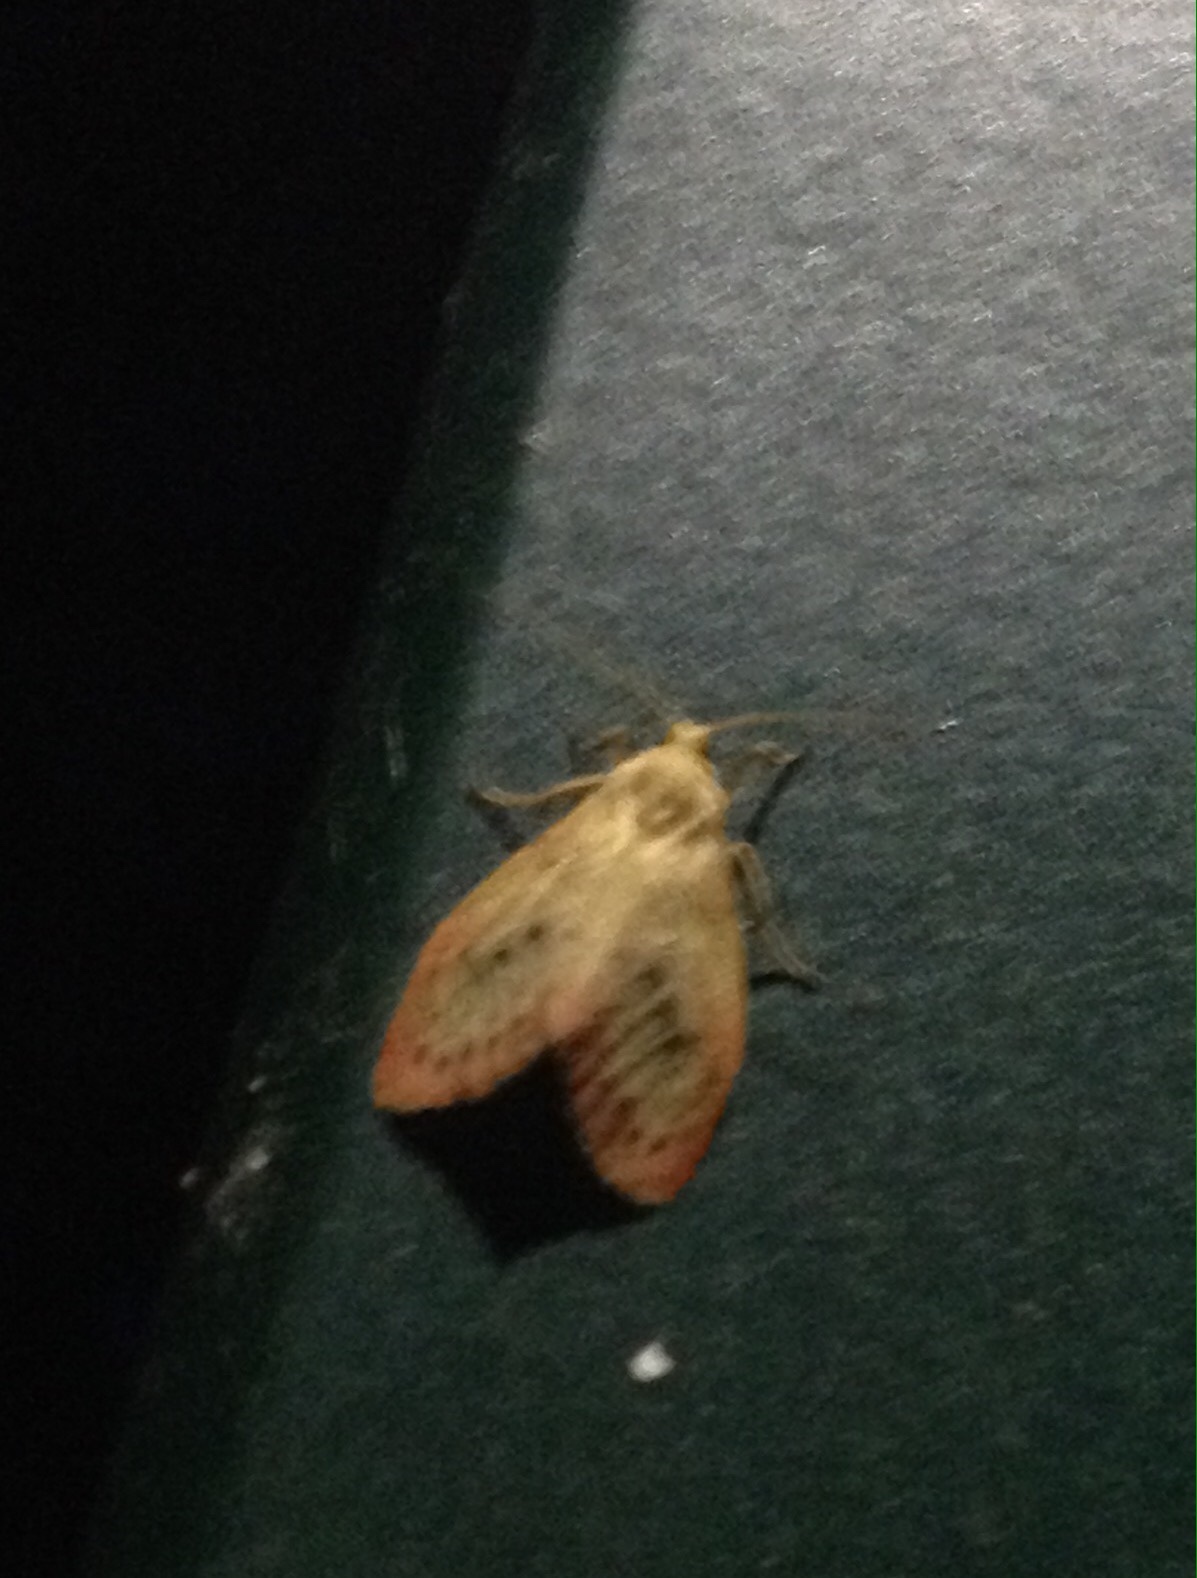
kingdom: Animalia
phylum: Arthropoda
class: Insecta
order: Lepidoptera
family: Erebidae
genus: Miltochrista
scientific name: Miltochrista miniata
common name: Rosy footman
